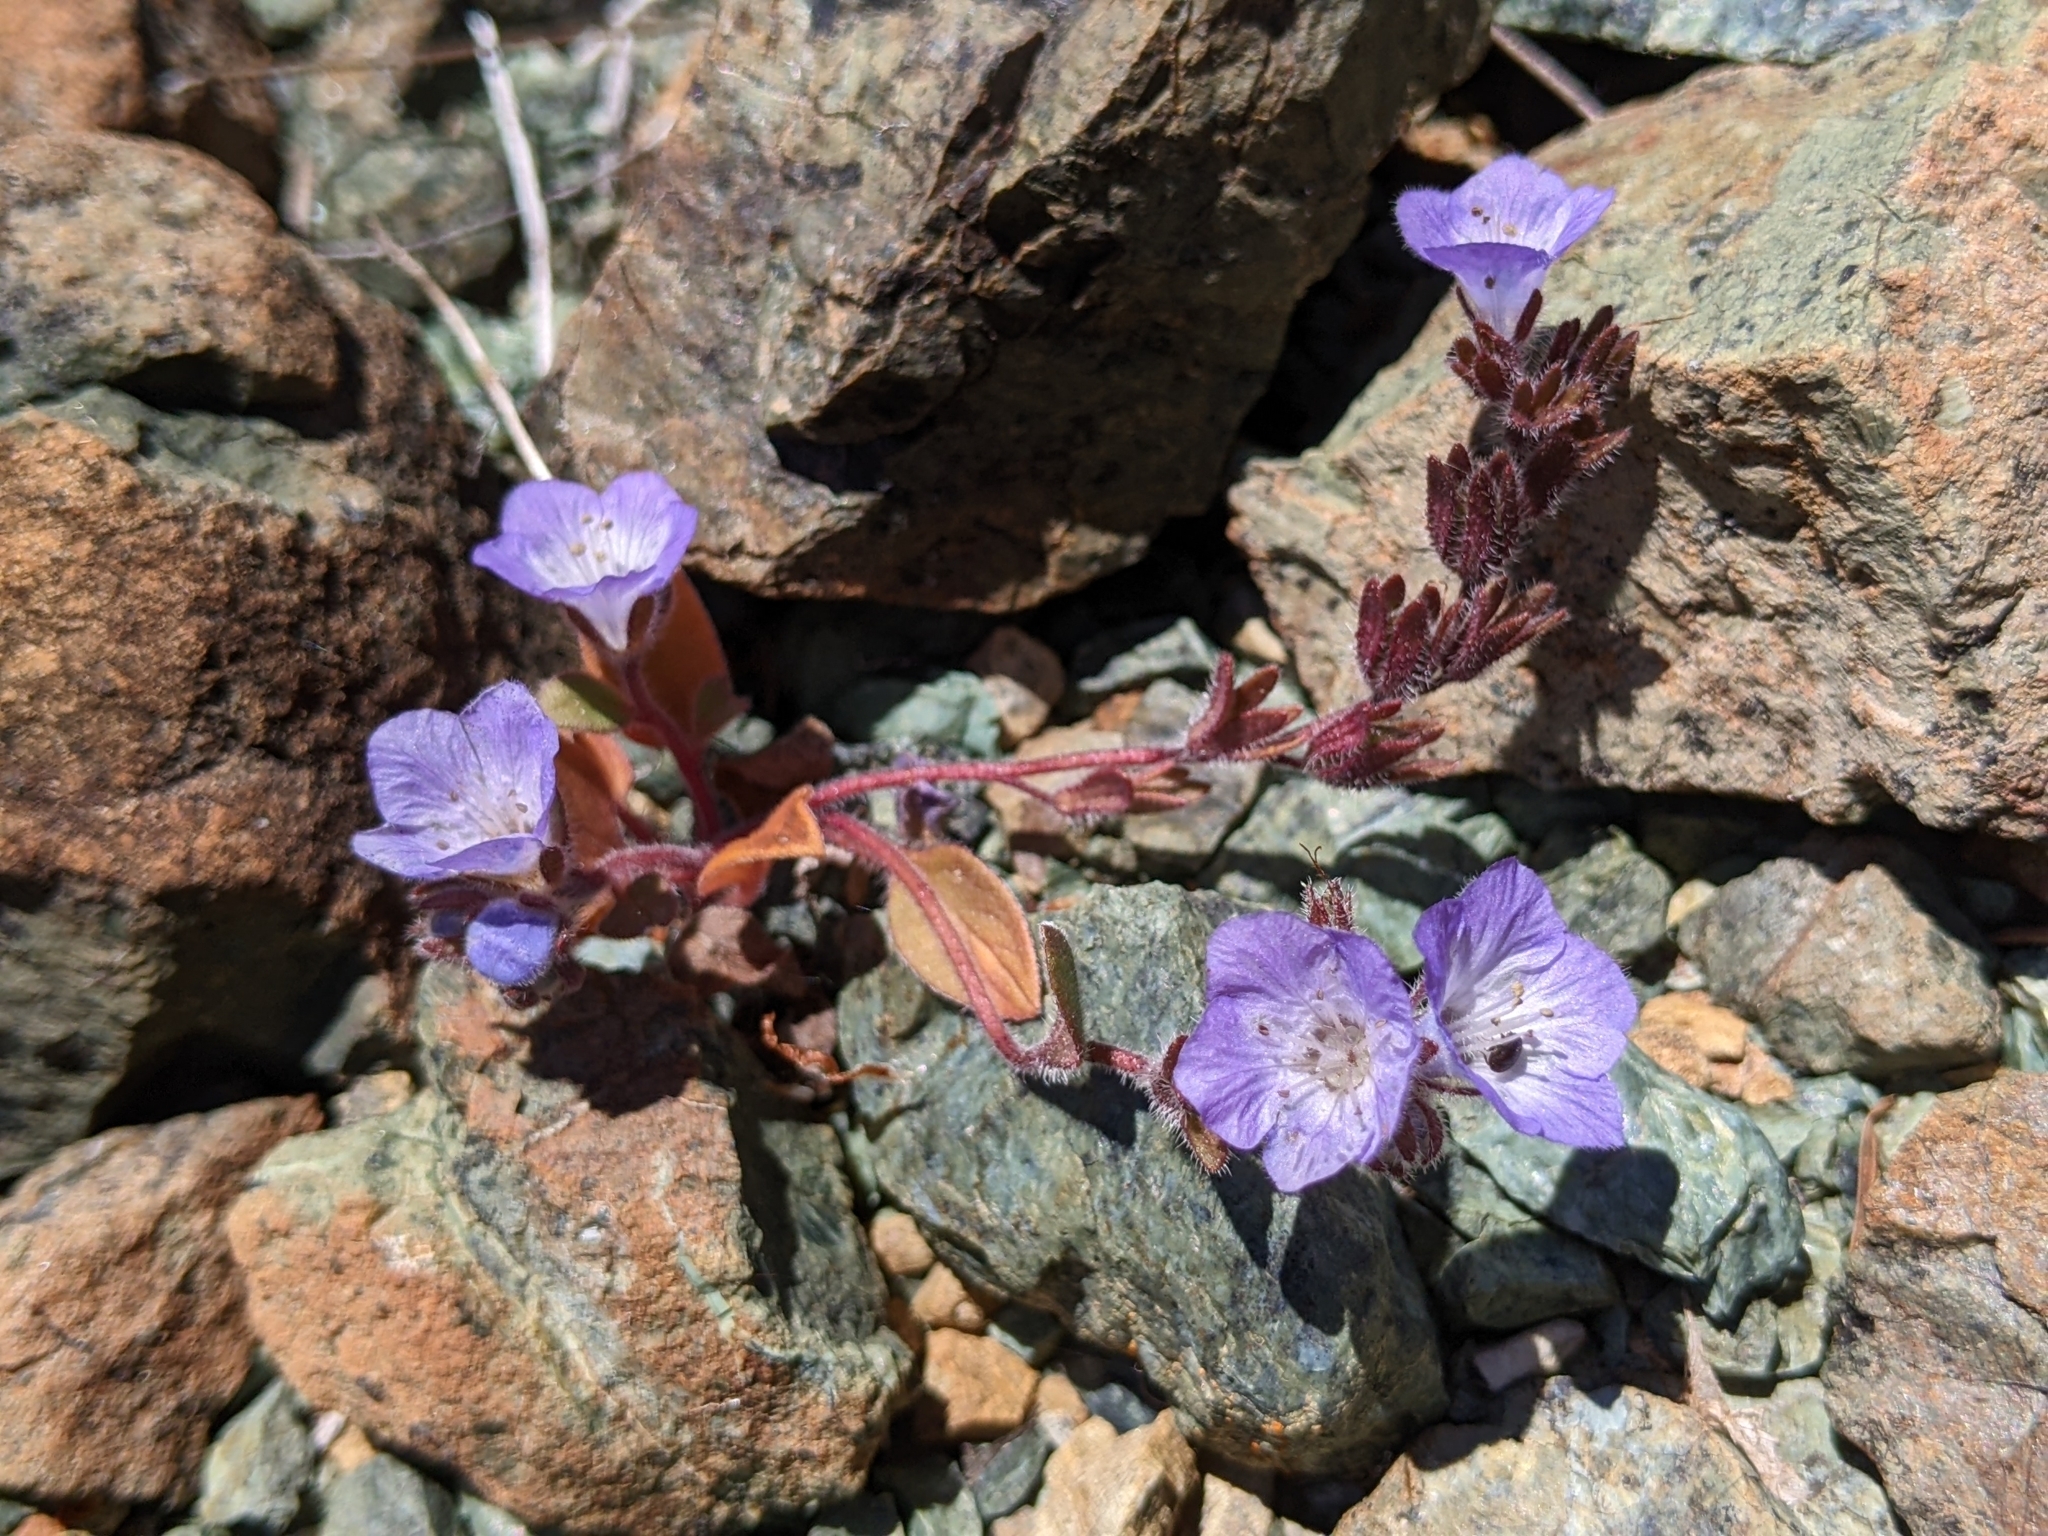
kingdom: Plantae
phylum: Tracheophyta
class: Magnoliopsida
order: Boraginales
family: Hydrophyllaceae
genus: Phacelia
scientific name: Phacelia divaricata
